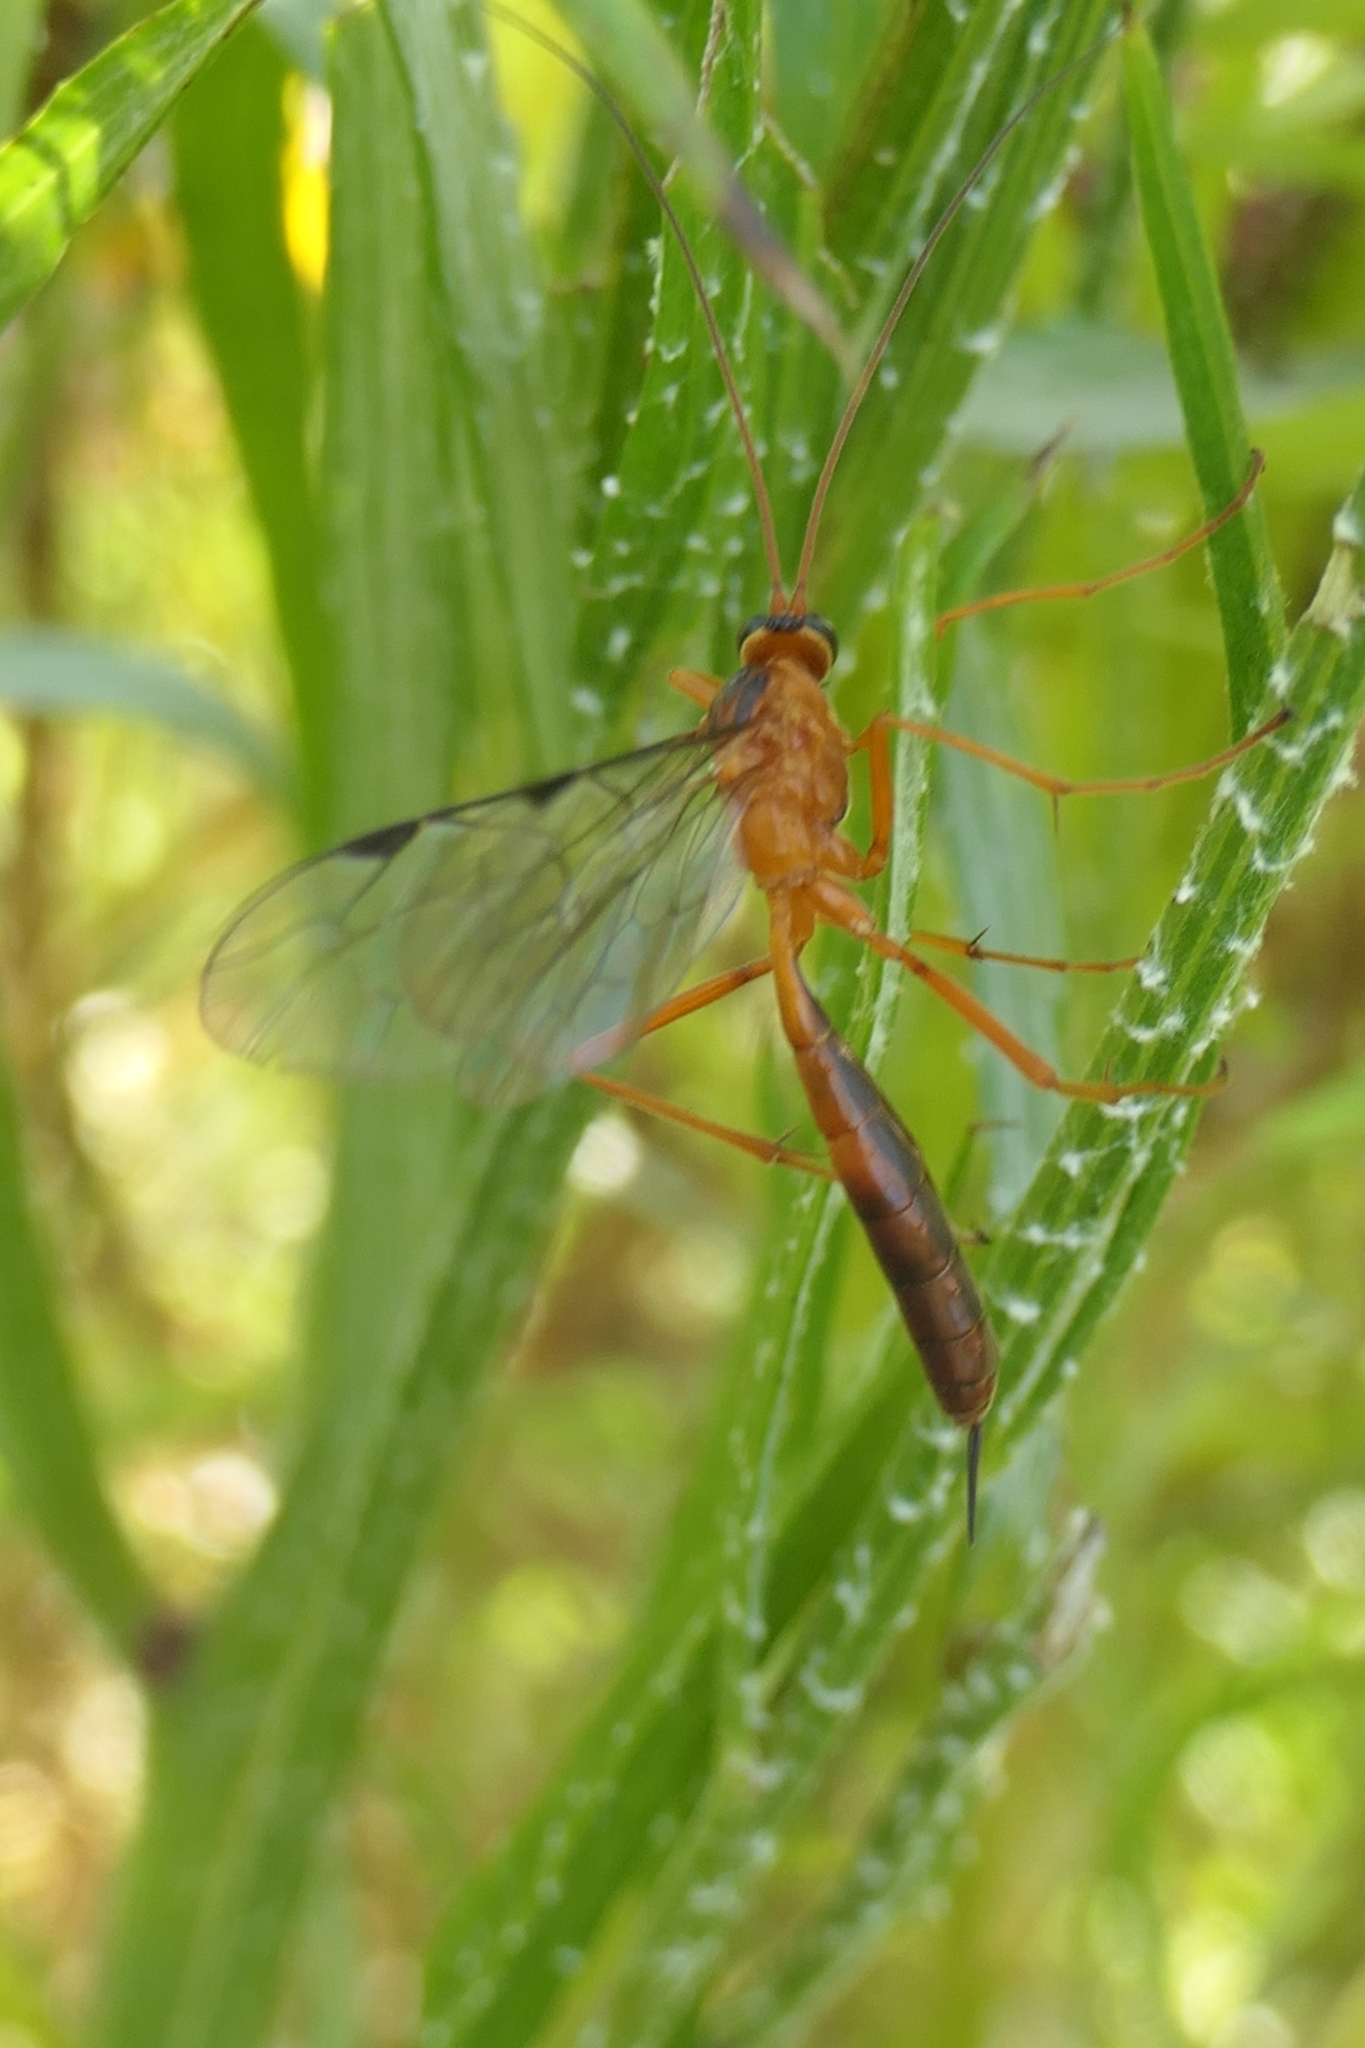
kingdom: Animalia
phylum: Arthropoda
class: Insecta
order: Hymenoptera
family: Ichneumonidae
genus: Netelia
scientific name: Netelia ephippiata
